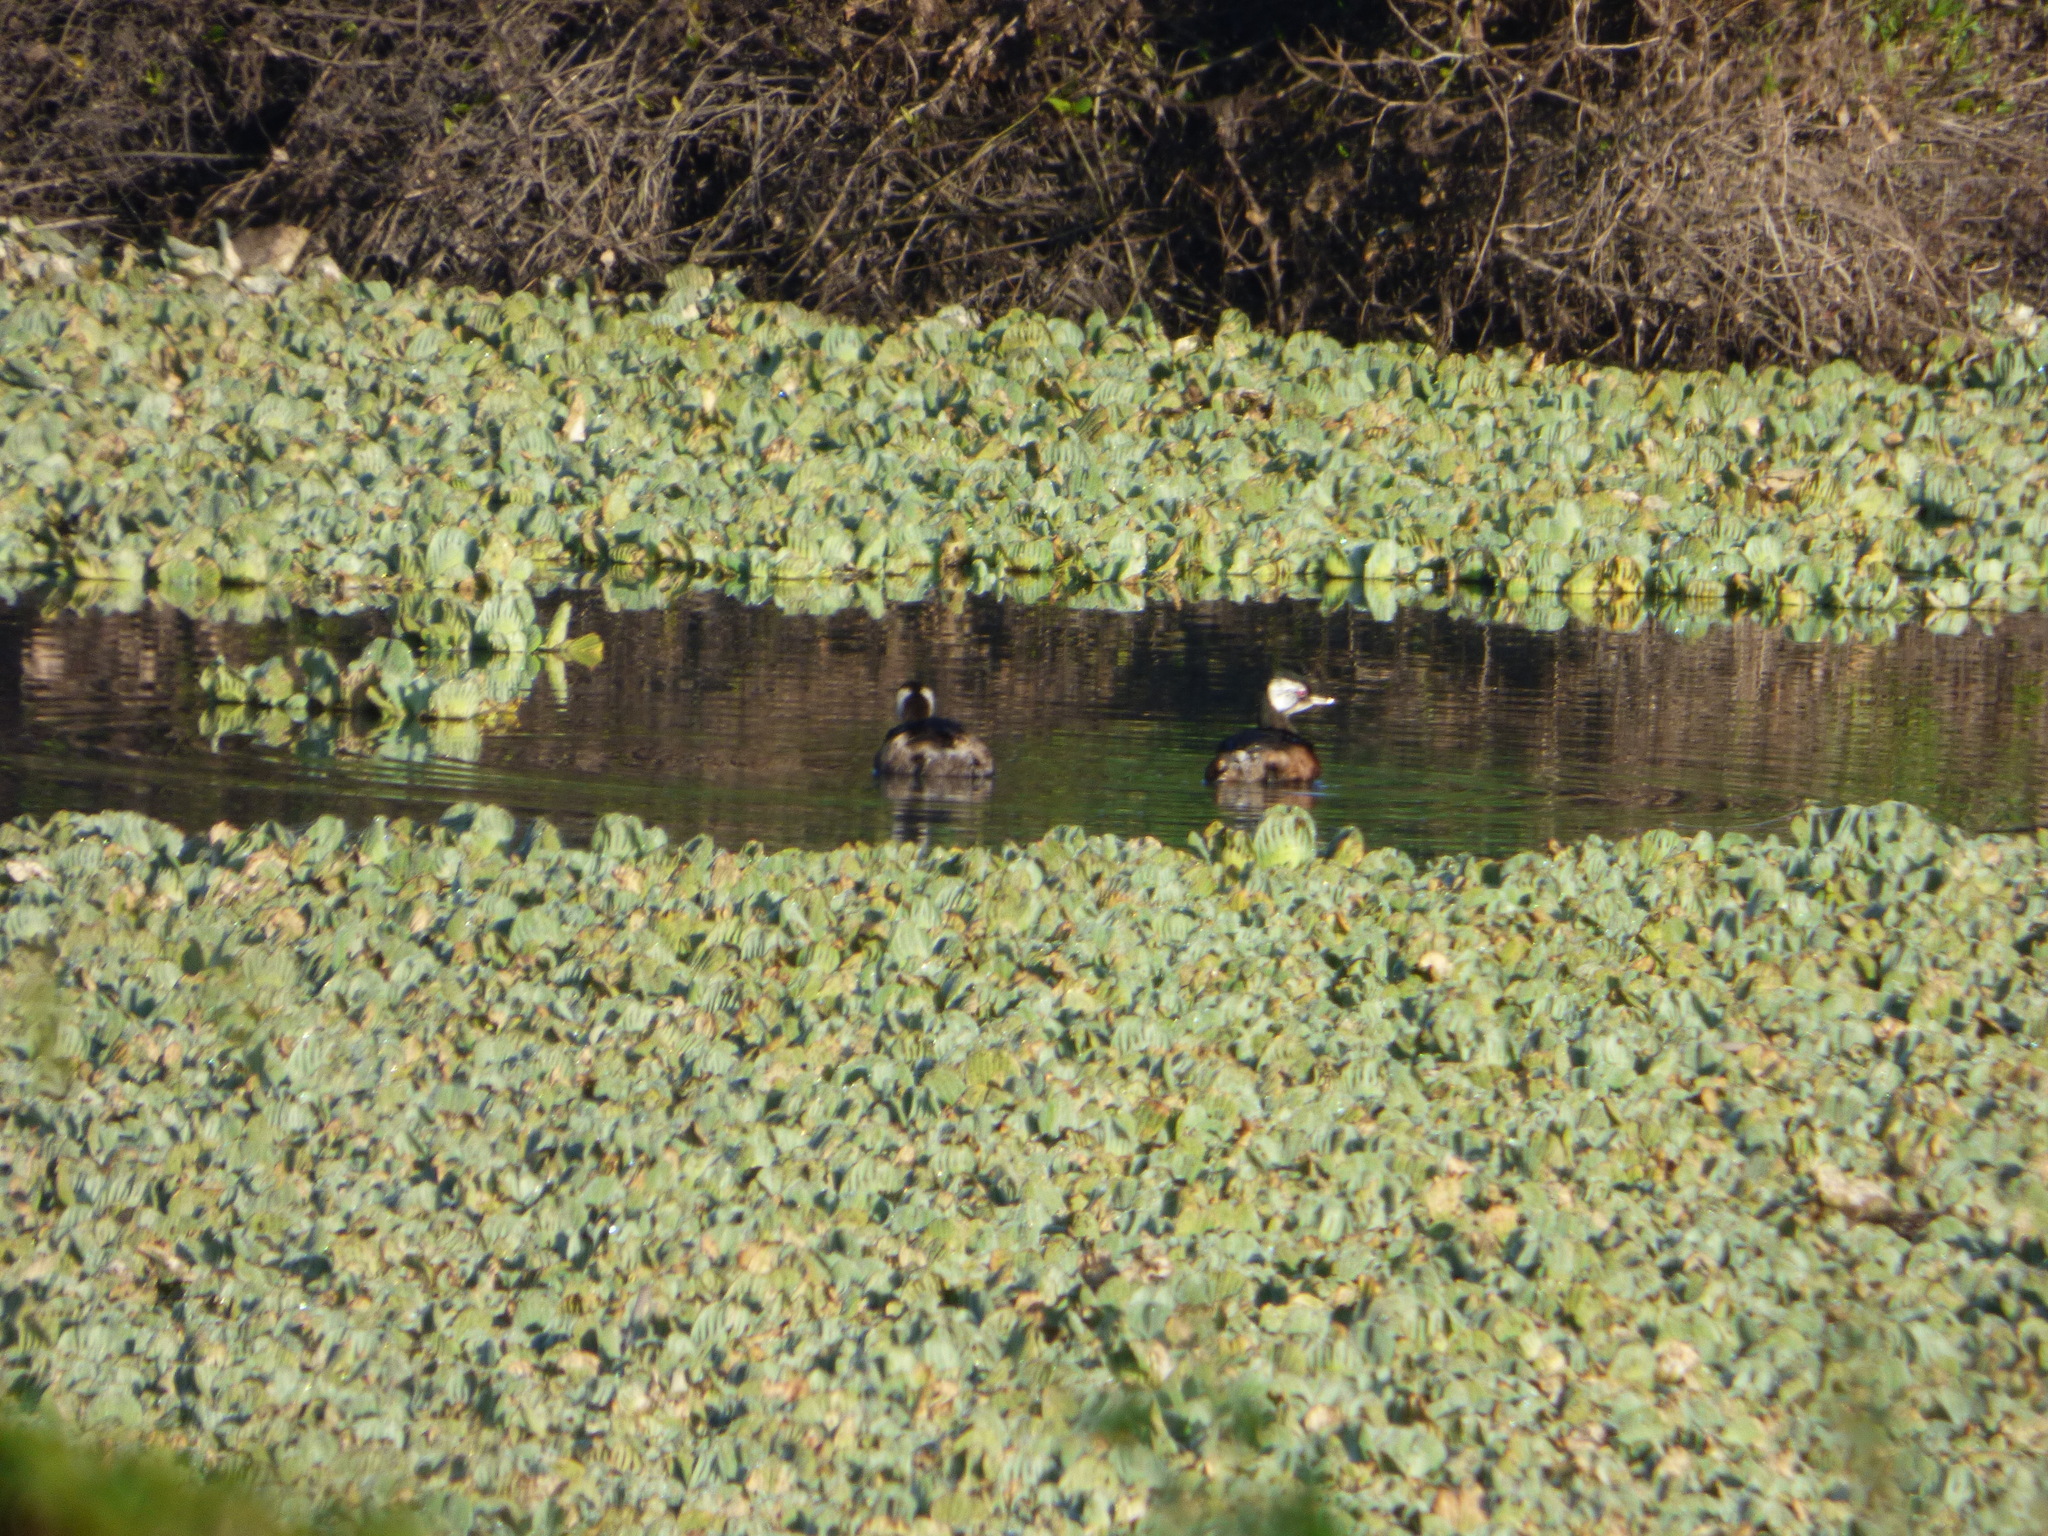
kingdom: Animalia
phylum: Chordata
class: Aves
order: Podicipediformes
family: Podicipedidae
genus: Rollandia
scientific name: Rollandia rolland
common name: White-tufted grebe
